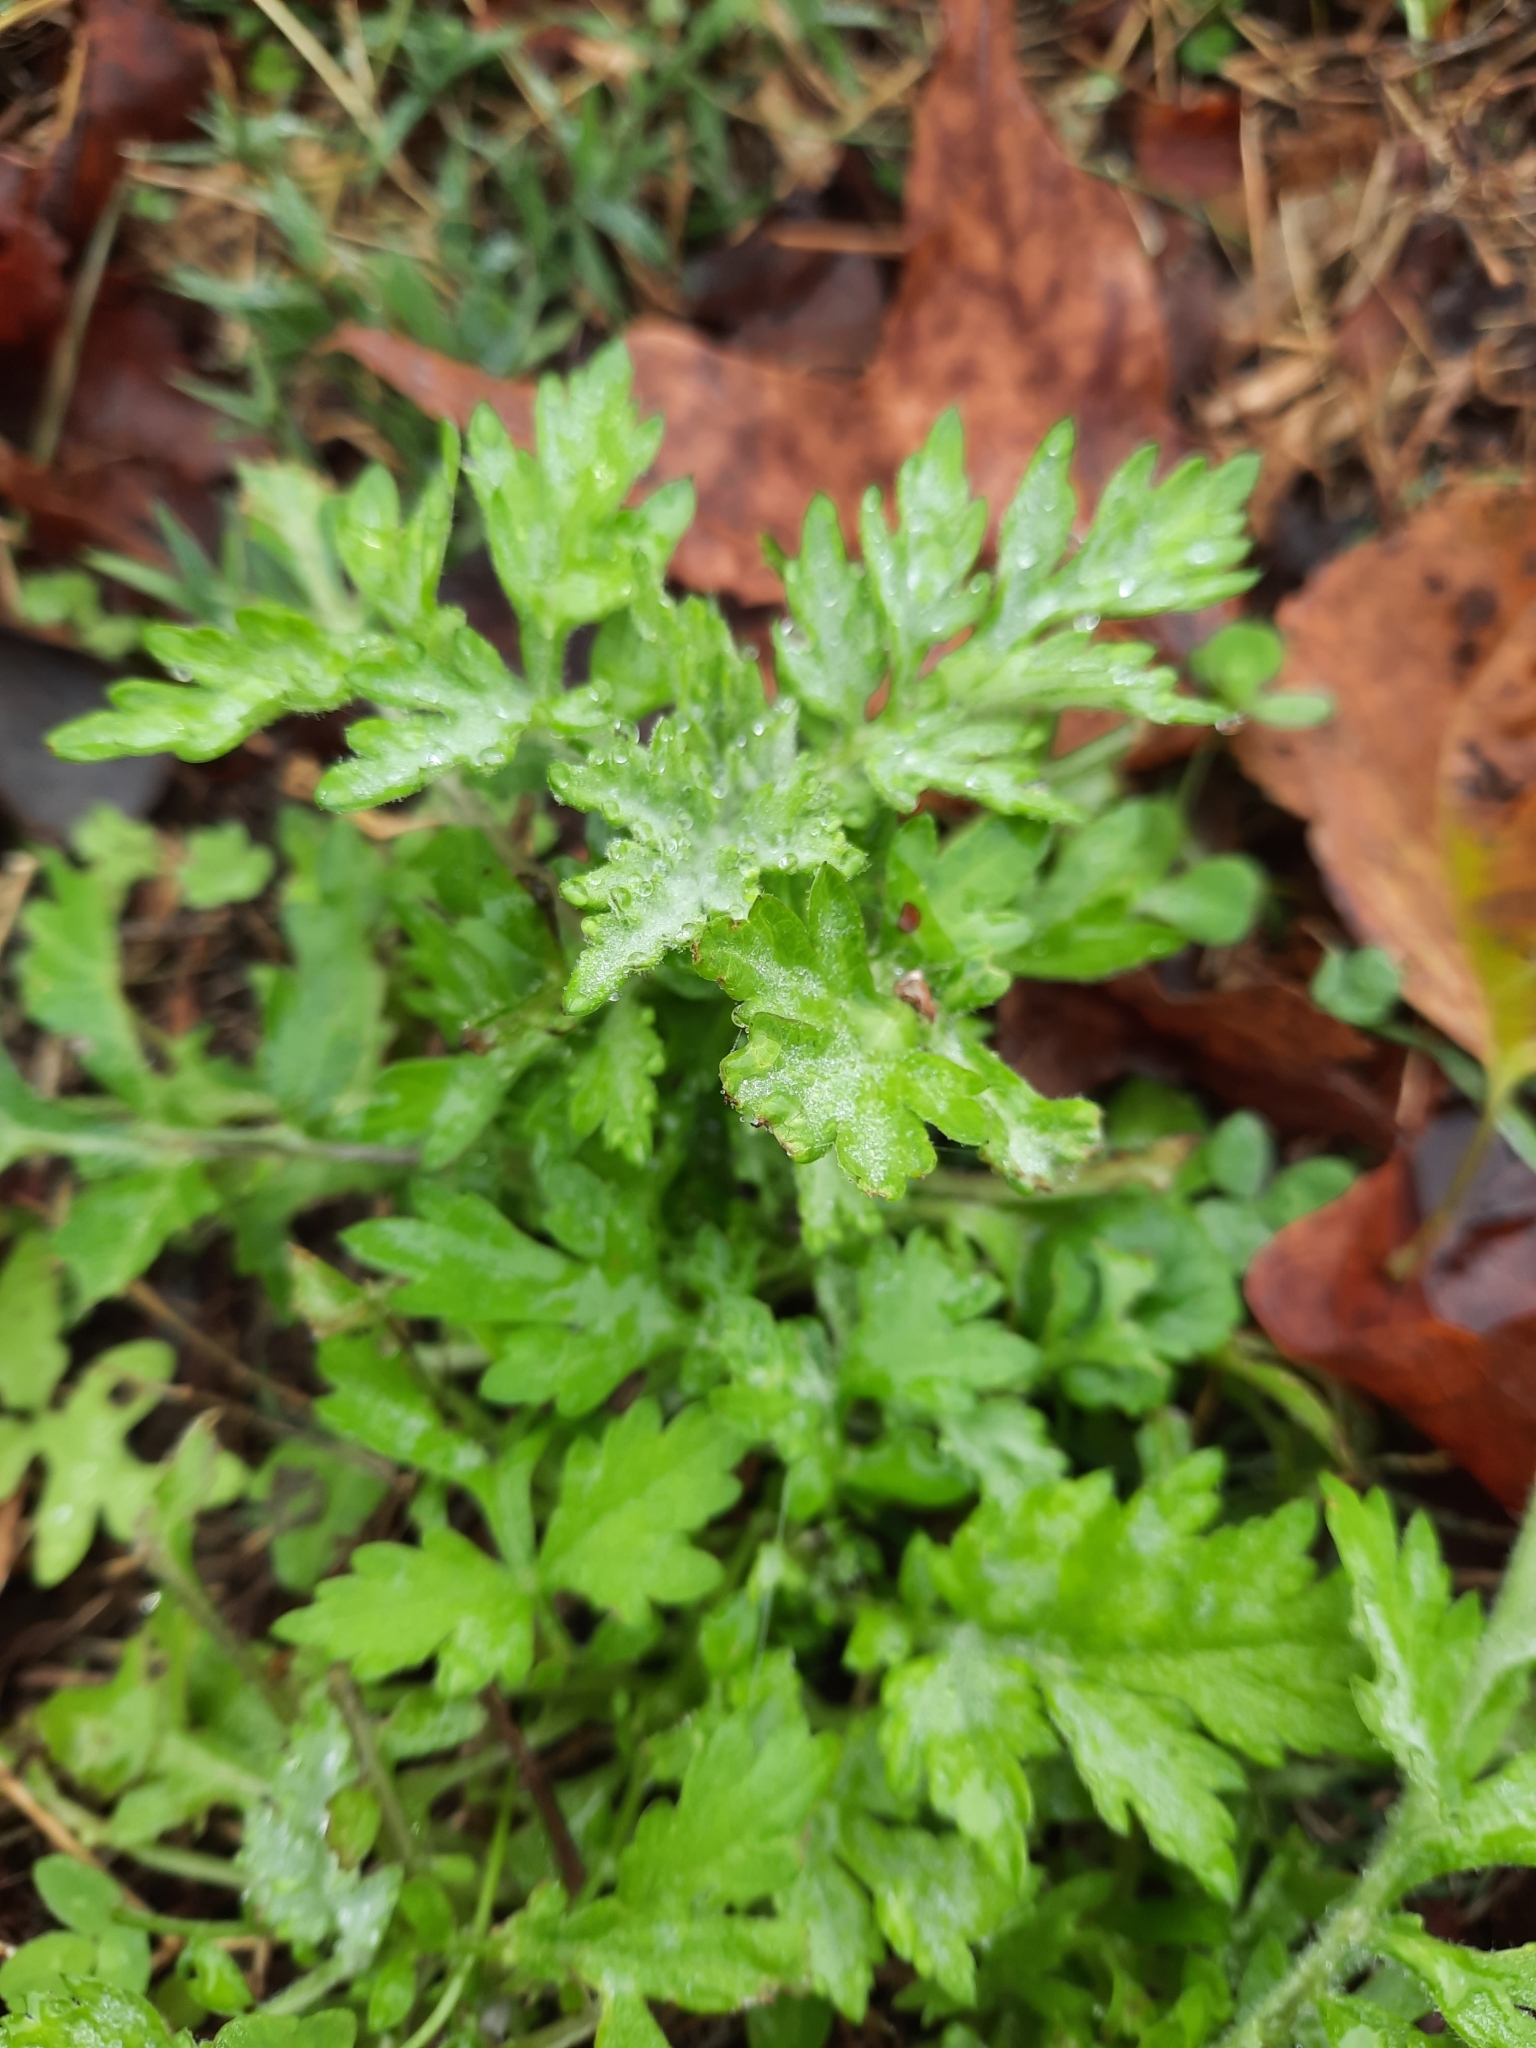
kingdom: Plantae
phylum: Tracheophyta
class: Magnoliopsida
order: Asterales
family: Asteraceae
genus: Artemisia
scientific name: Artemisia vulgaris
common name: Mugwort
